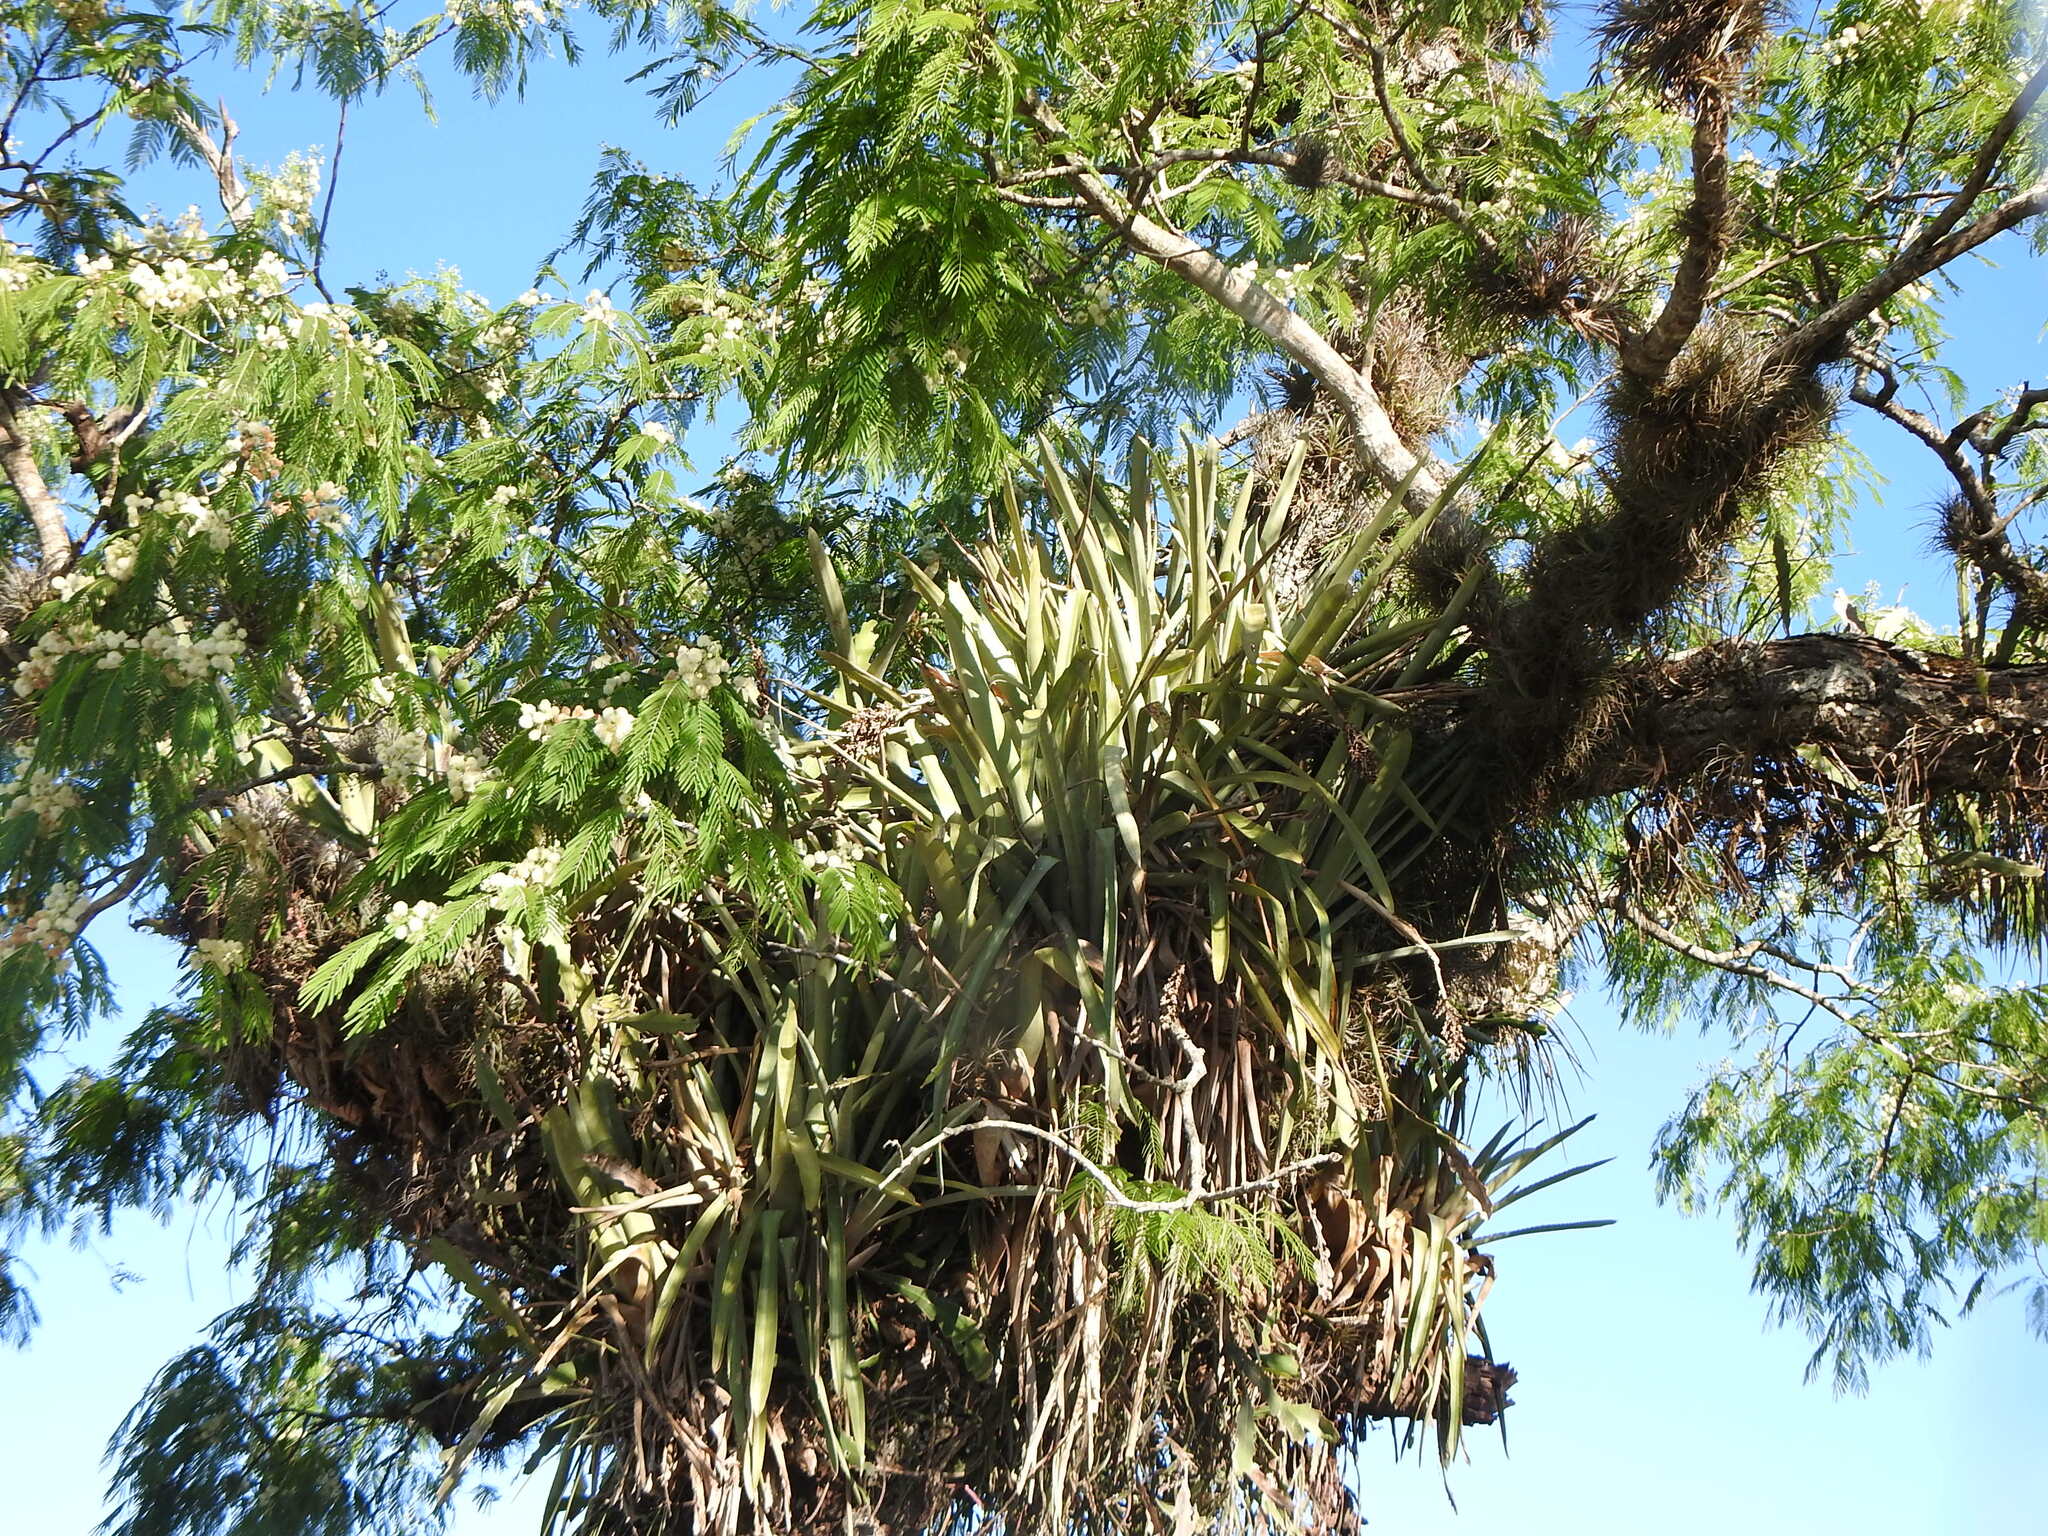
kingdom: Plantae
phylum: Tracheophyta
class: Liliopsida
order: Poales
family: Bromeliaceae
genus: Aechmea
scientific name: Aechmea distichantha
